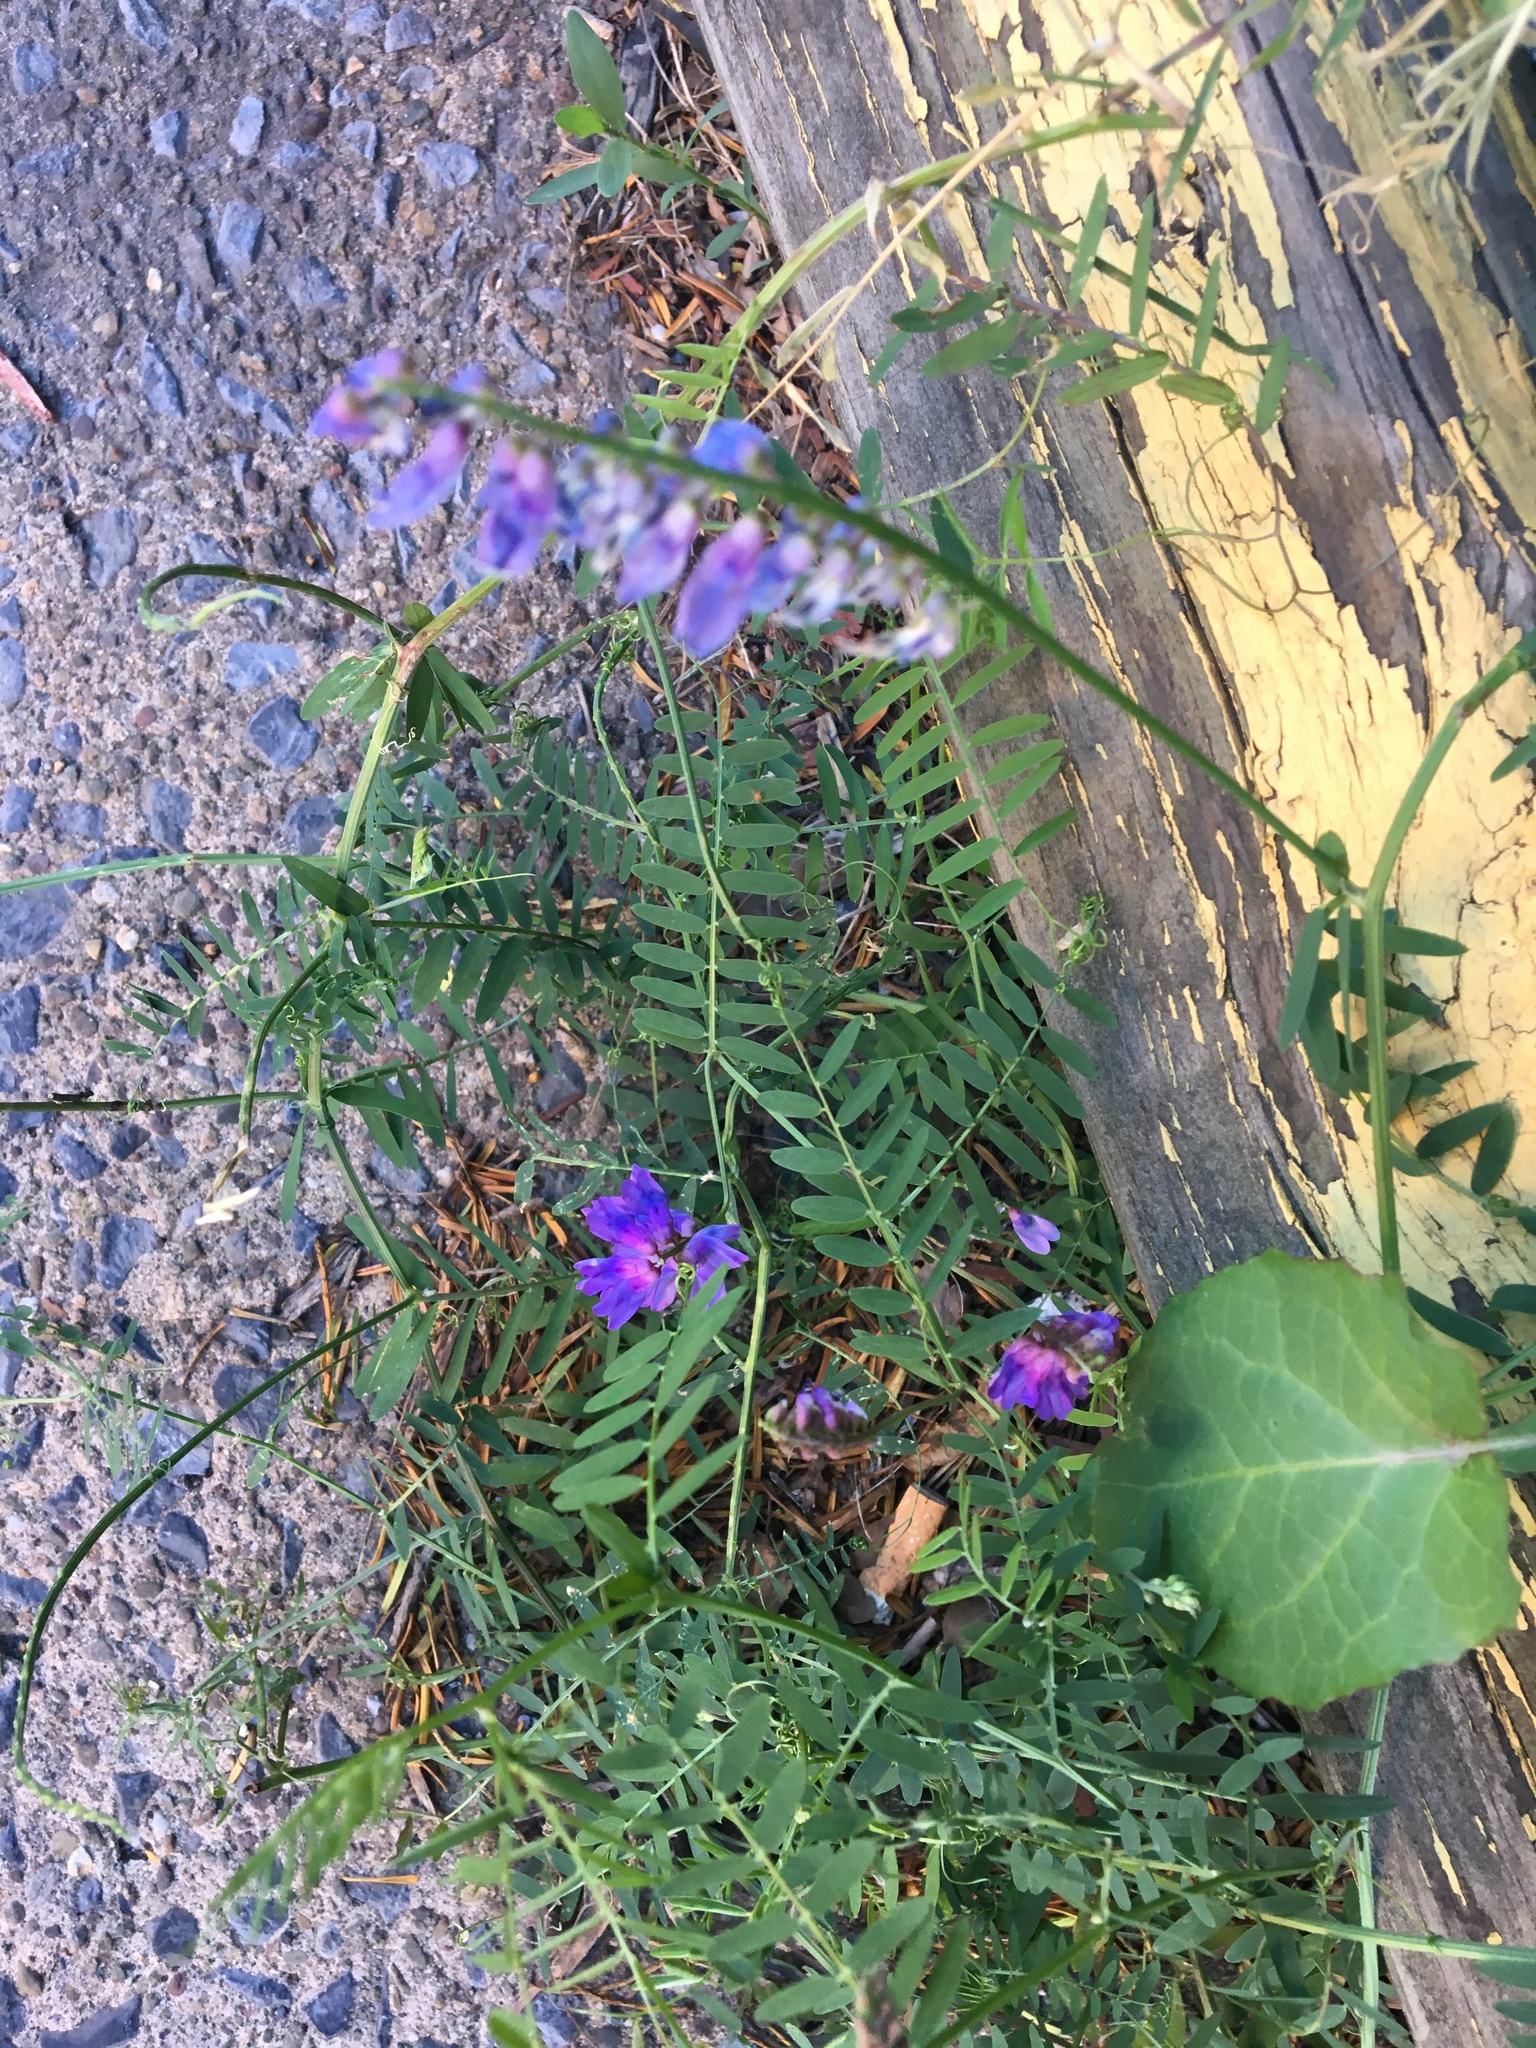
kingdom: Plantae
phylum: Tracheophyta
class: Magnoliopsida
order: Fabales
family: Fabaceae
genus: Vicia
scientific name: Vicia cracca
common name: Bird vetch
